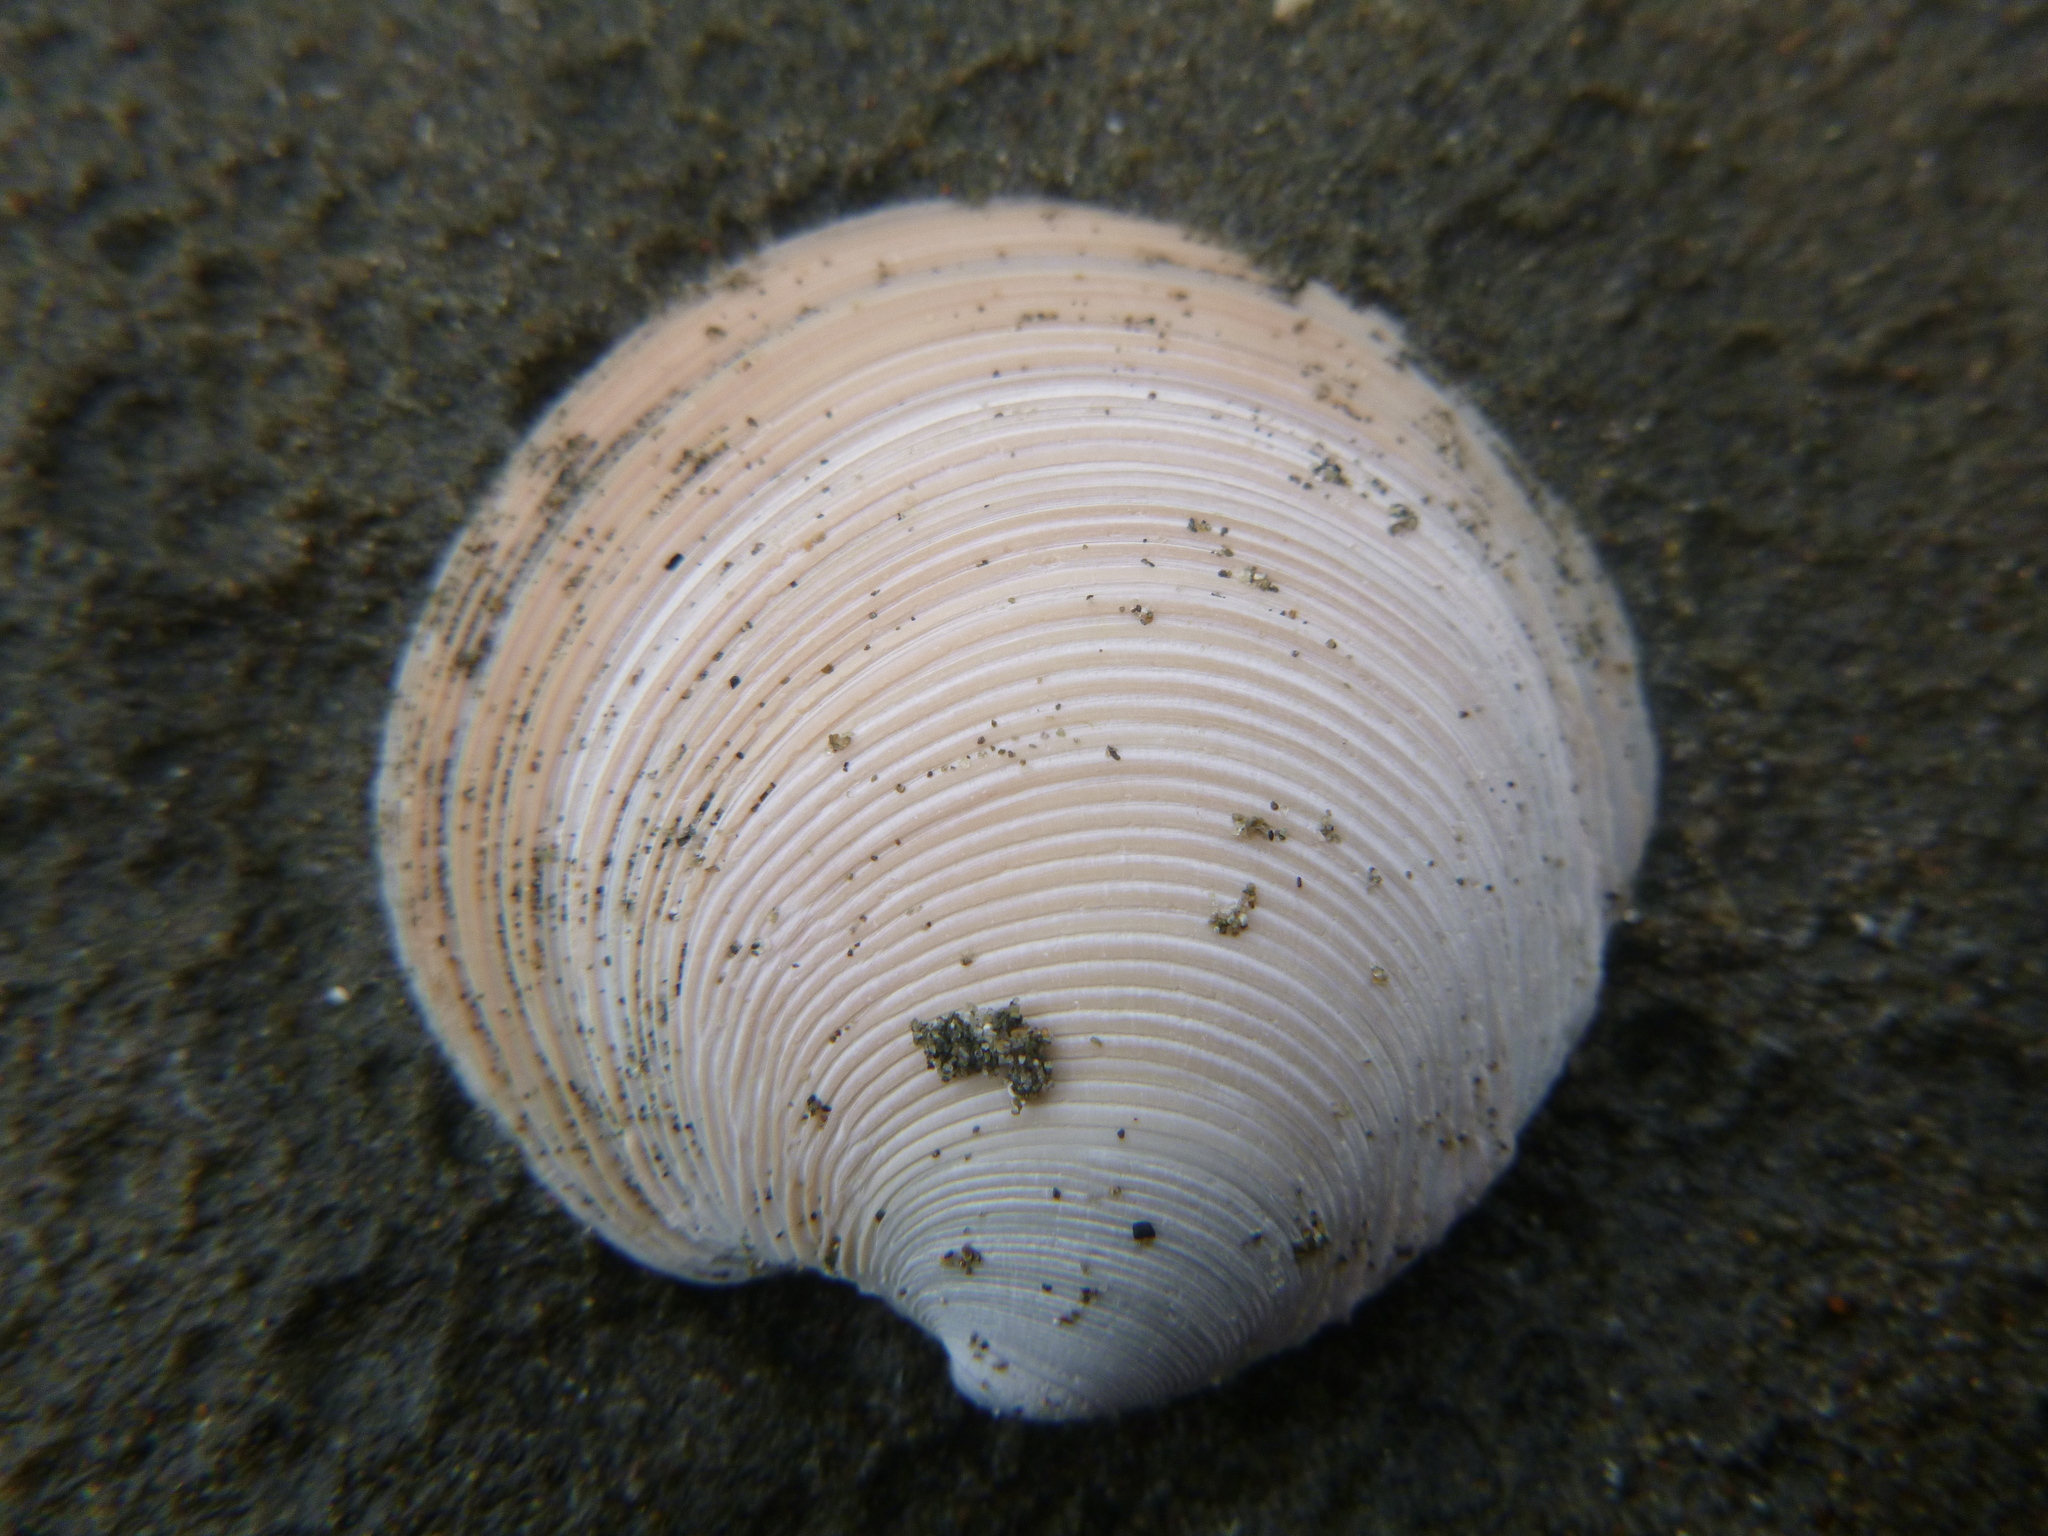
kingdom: Animalia
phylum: Mollusca
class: Bivalvia
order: Venerida
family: Veneridae
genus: Dosinia
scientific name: Dosinia anus
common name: Old-woman dosinia
